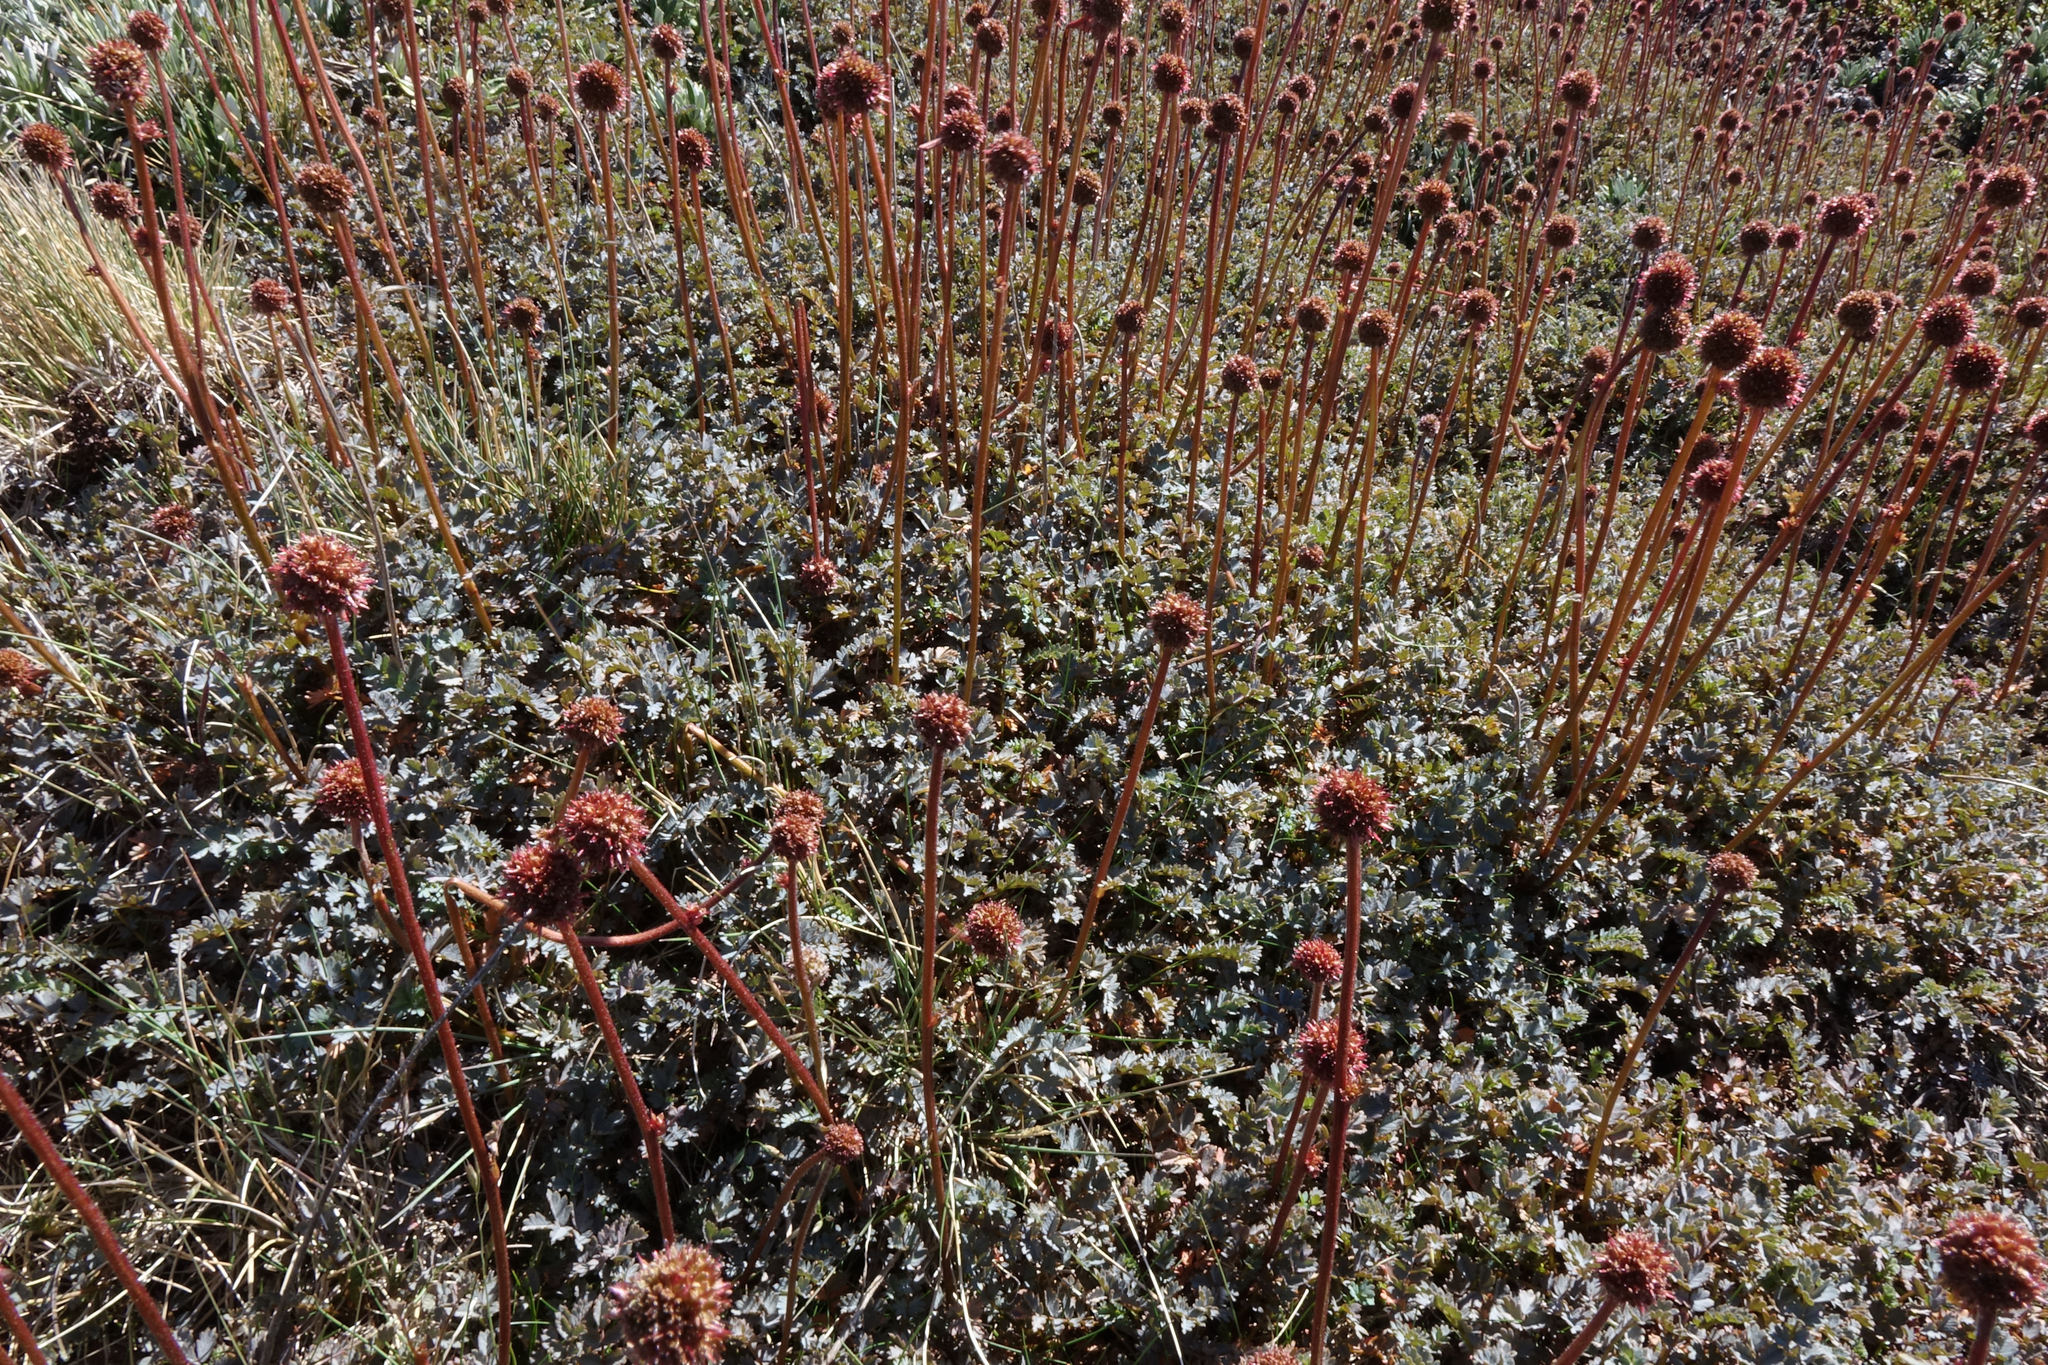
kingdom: Plantae
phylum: Tracheophyta
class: Magnoliopsida
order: Rosales
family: Rosaceae
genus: Acaena
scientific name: Acaena saccaticupula
